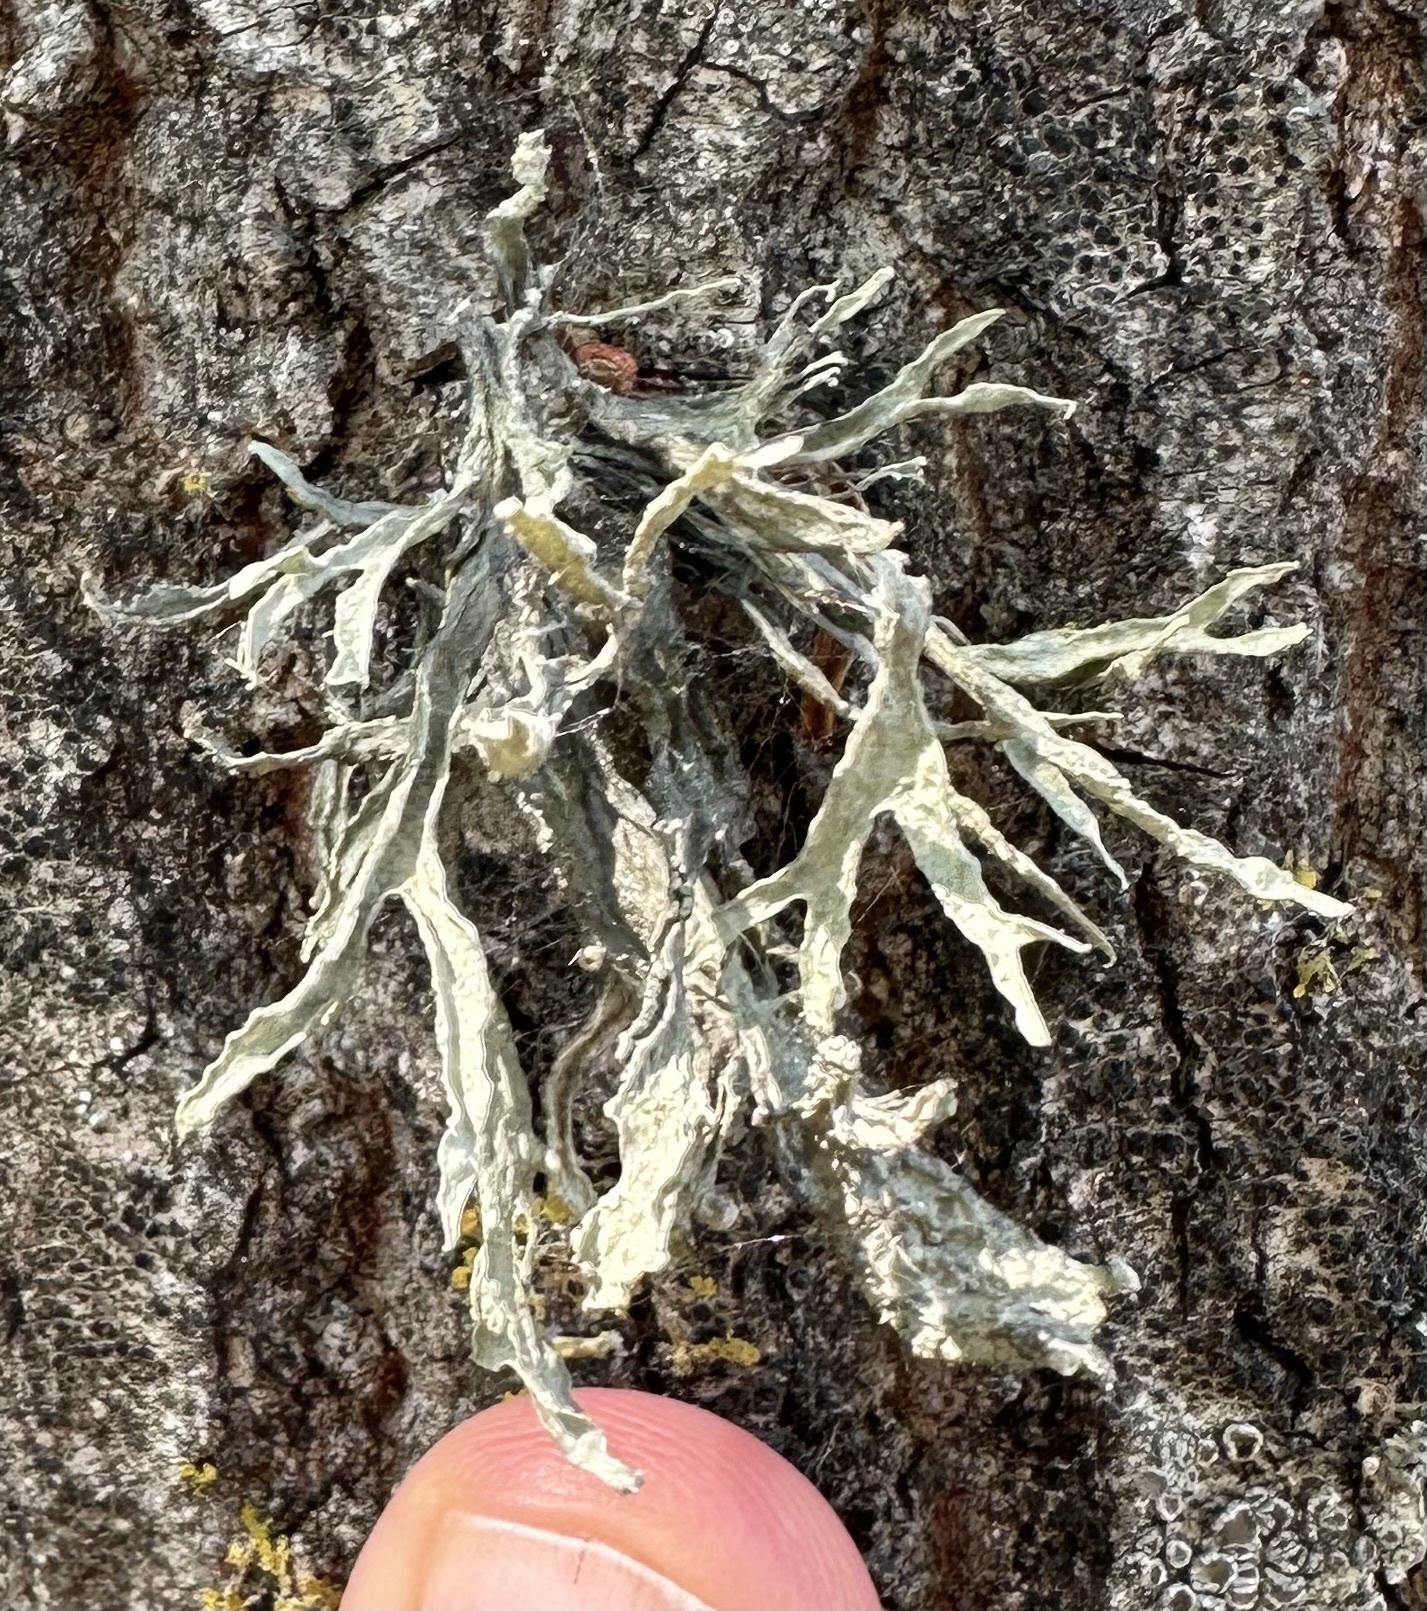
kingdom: Fungi
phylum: Ascomycota
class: Lecanoromycetes
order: Lecanorales
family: Ramalinaceae
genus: Ramalina
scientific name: Ramalina fraxinea
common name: Cartilage lichen
